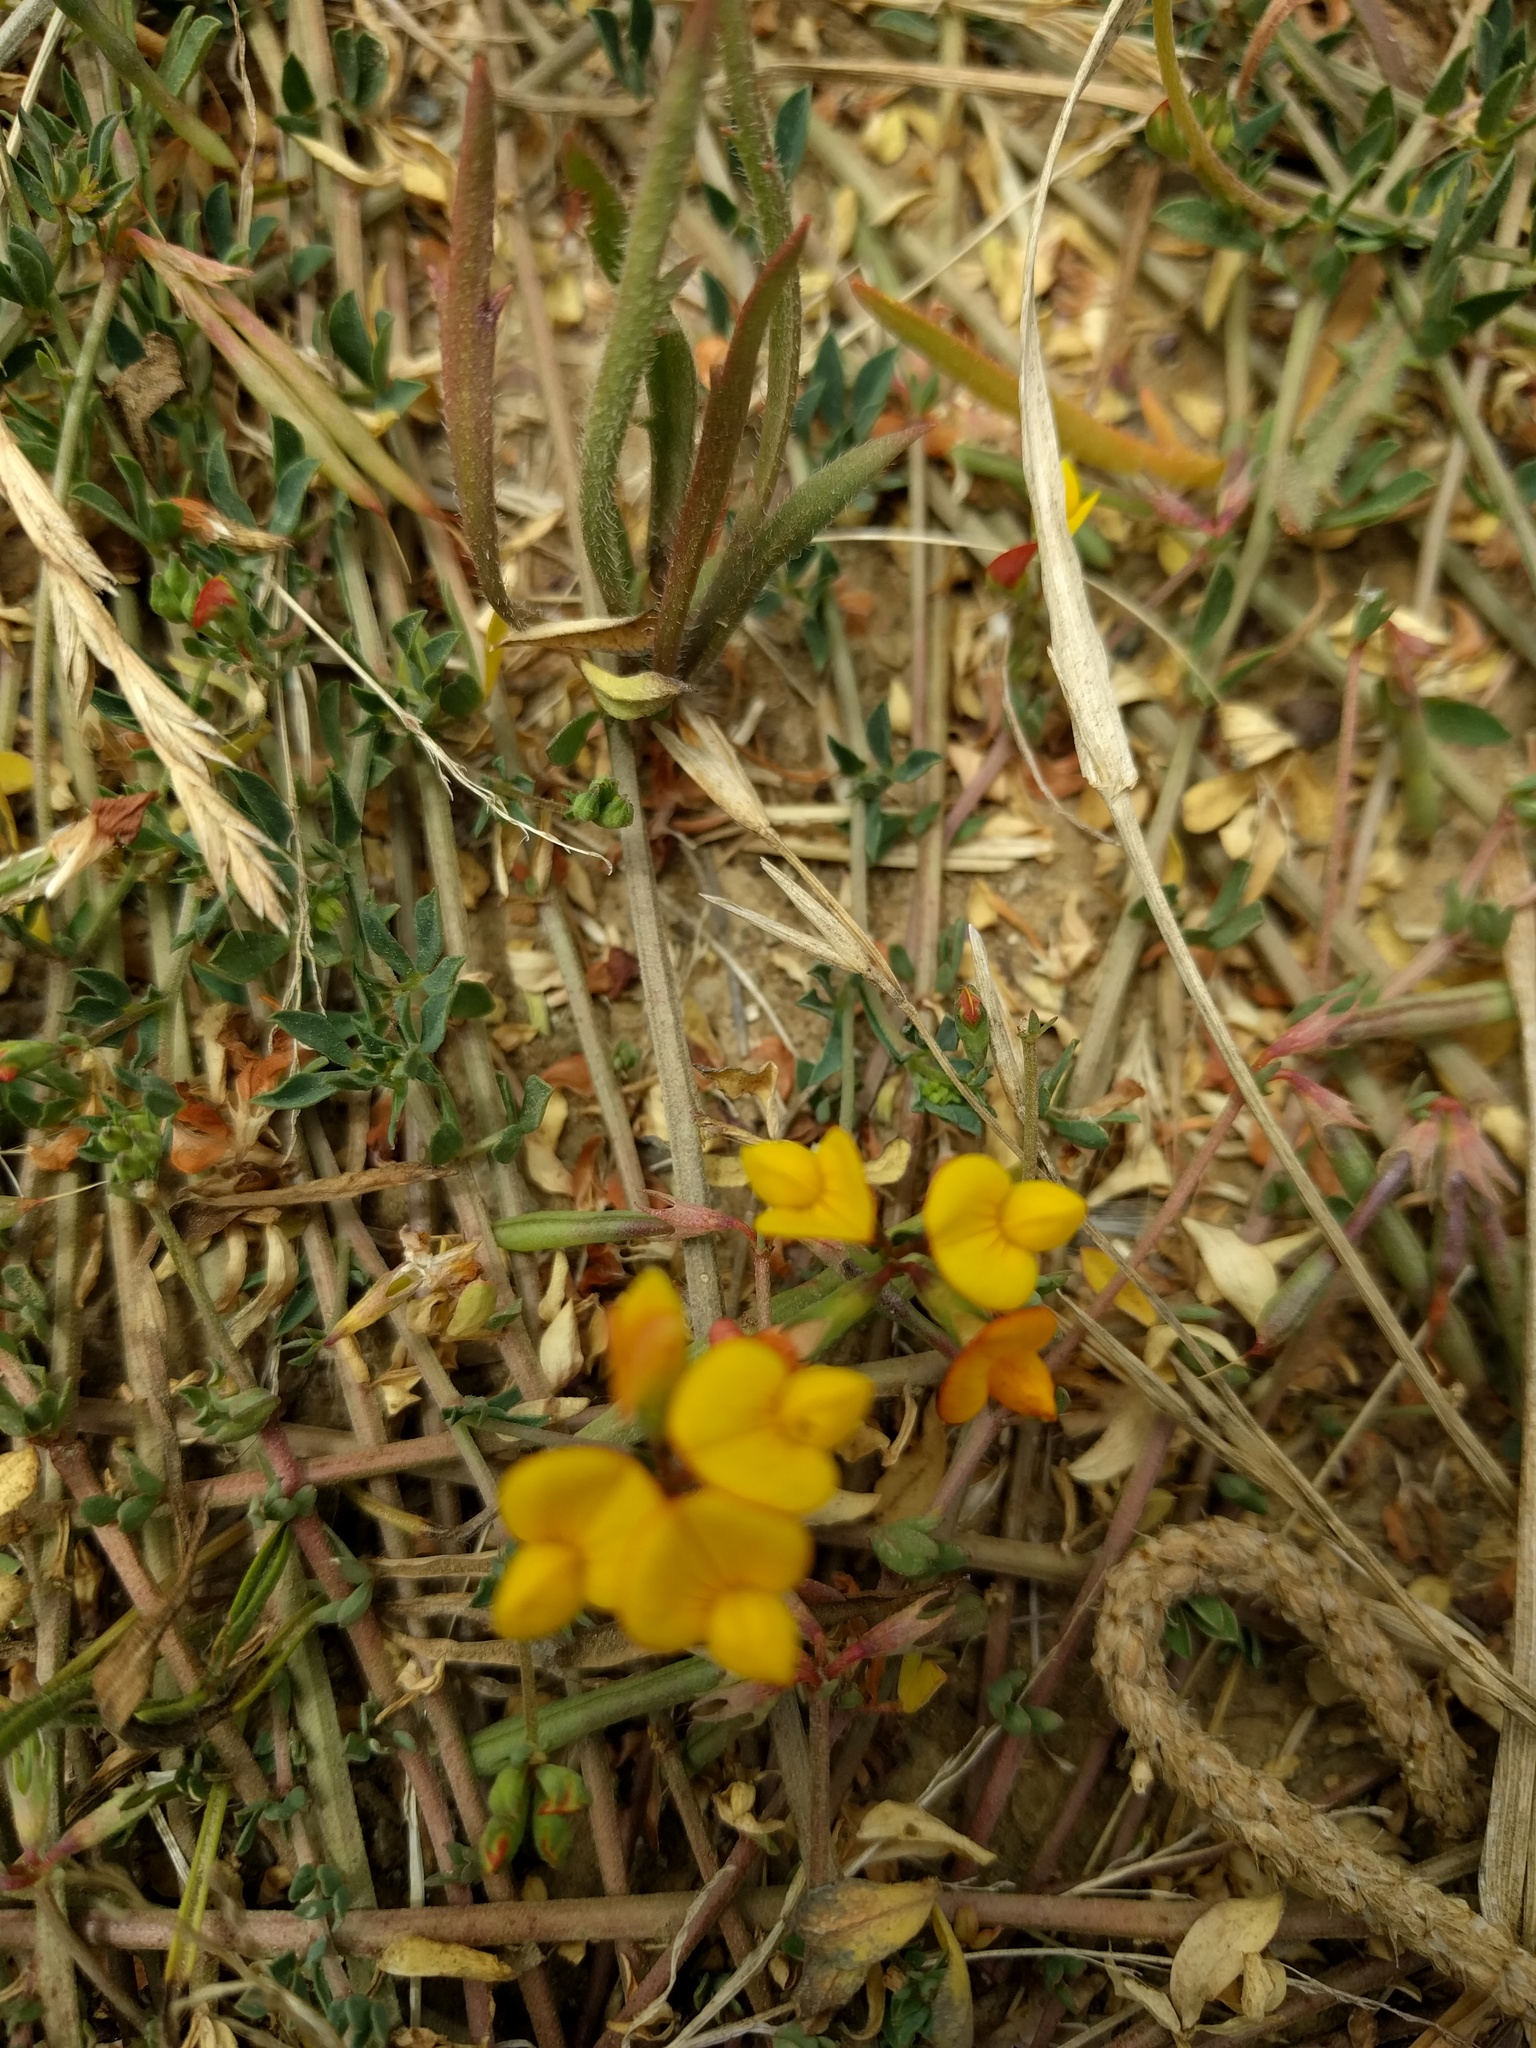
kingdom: Plantae
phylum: Tracheophyta
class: Magnoliopsida
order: Fabales
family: Fabaceae
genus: Lotus
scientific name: Lotus corniculatus
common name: Common bird's-foot-trefoil
